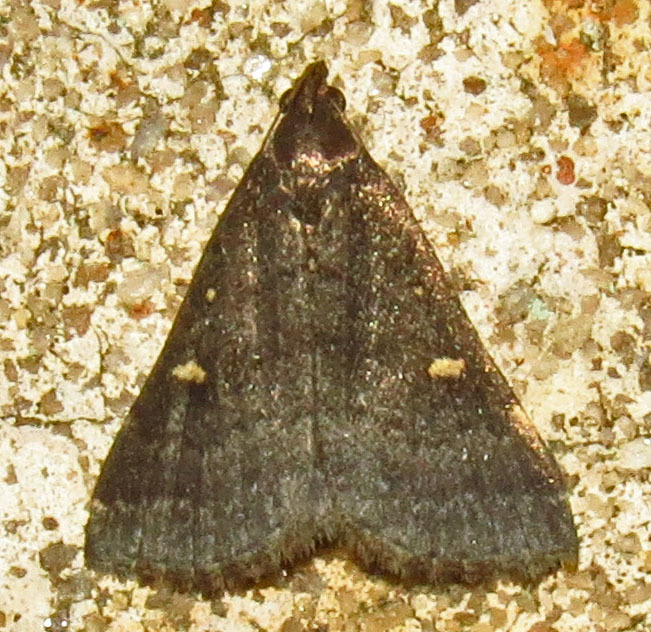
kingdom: Animalia
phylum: Arthropoda
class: Insecta
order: Lepidoptera
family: Erebidae
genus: Tetanolita
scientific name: Tetanolita mynesalis
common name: Smoky tetanolita moth
